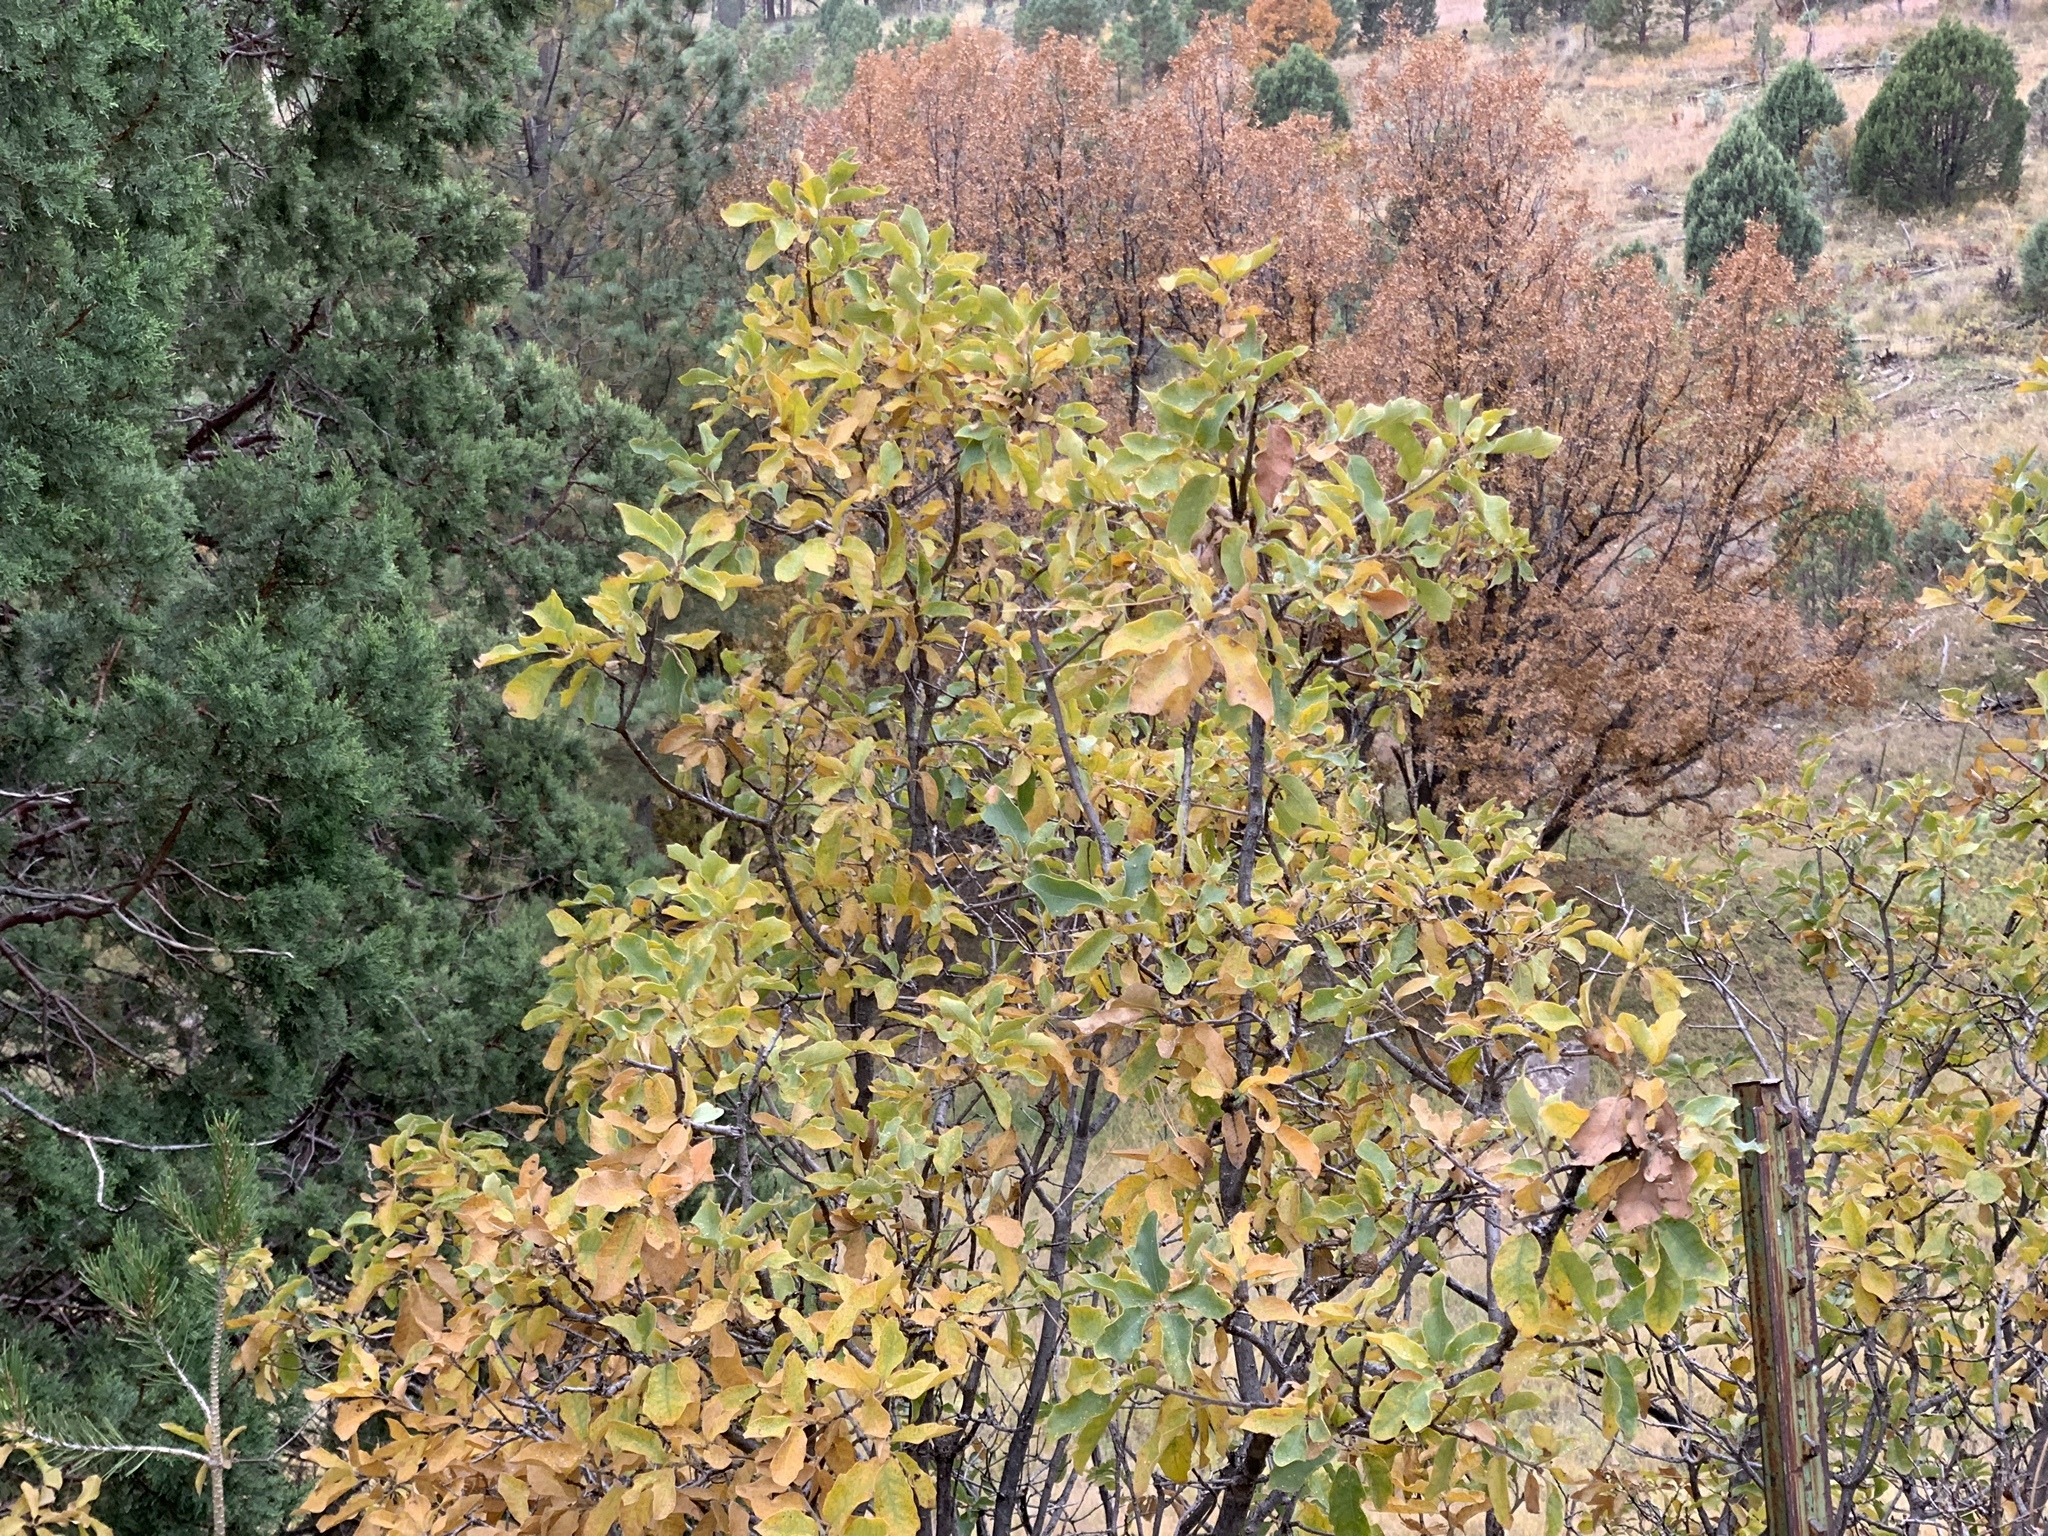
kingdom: Plantae
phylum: Tracheophyta
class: Magnoliopsida
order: Fagales
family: Fagaceae
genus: Quercus
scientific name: Quercus gambelii
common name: Gambel oak
